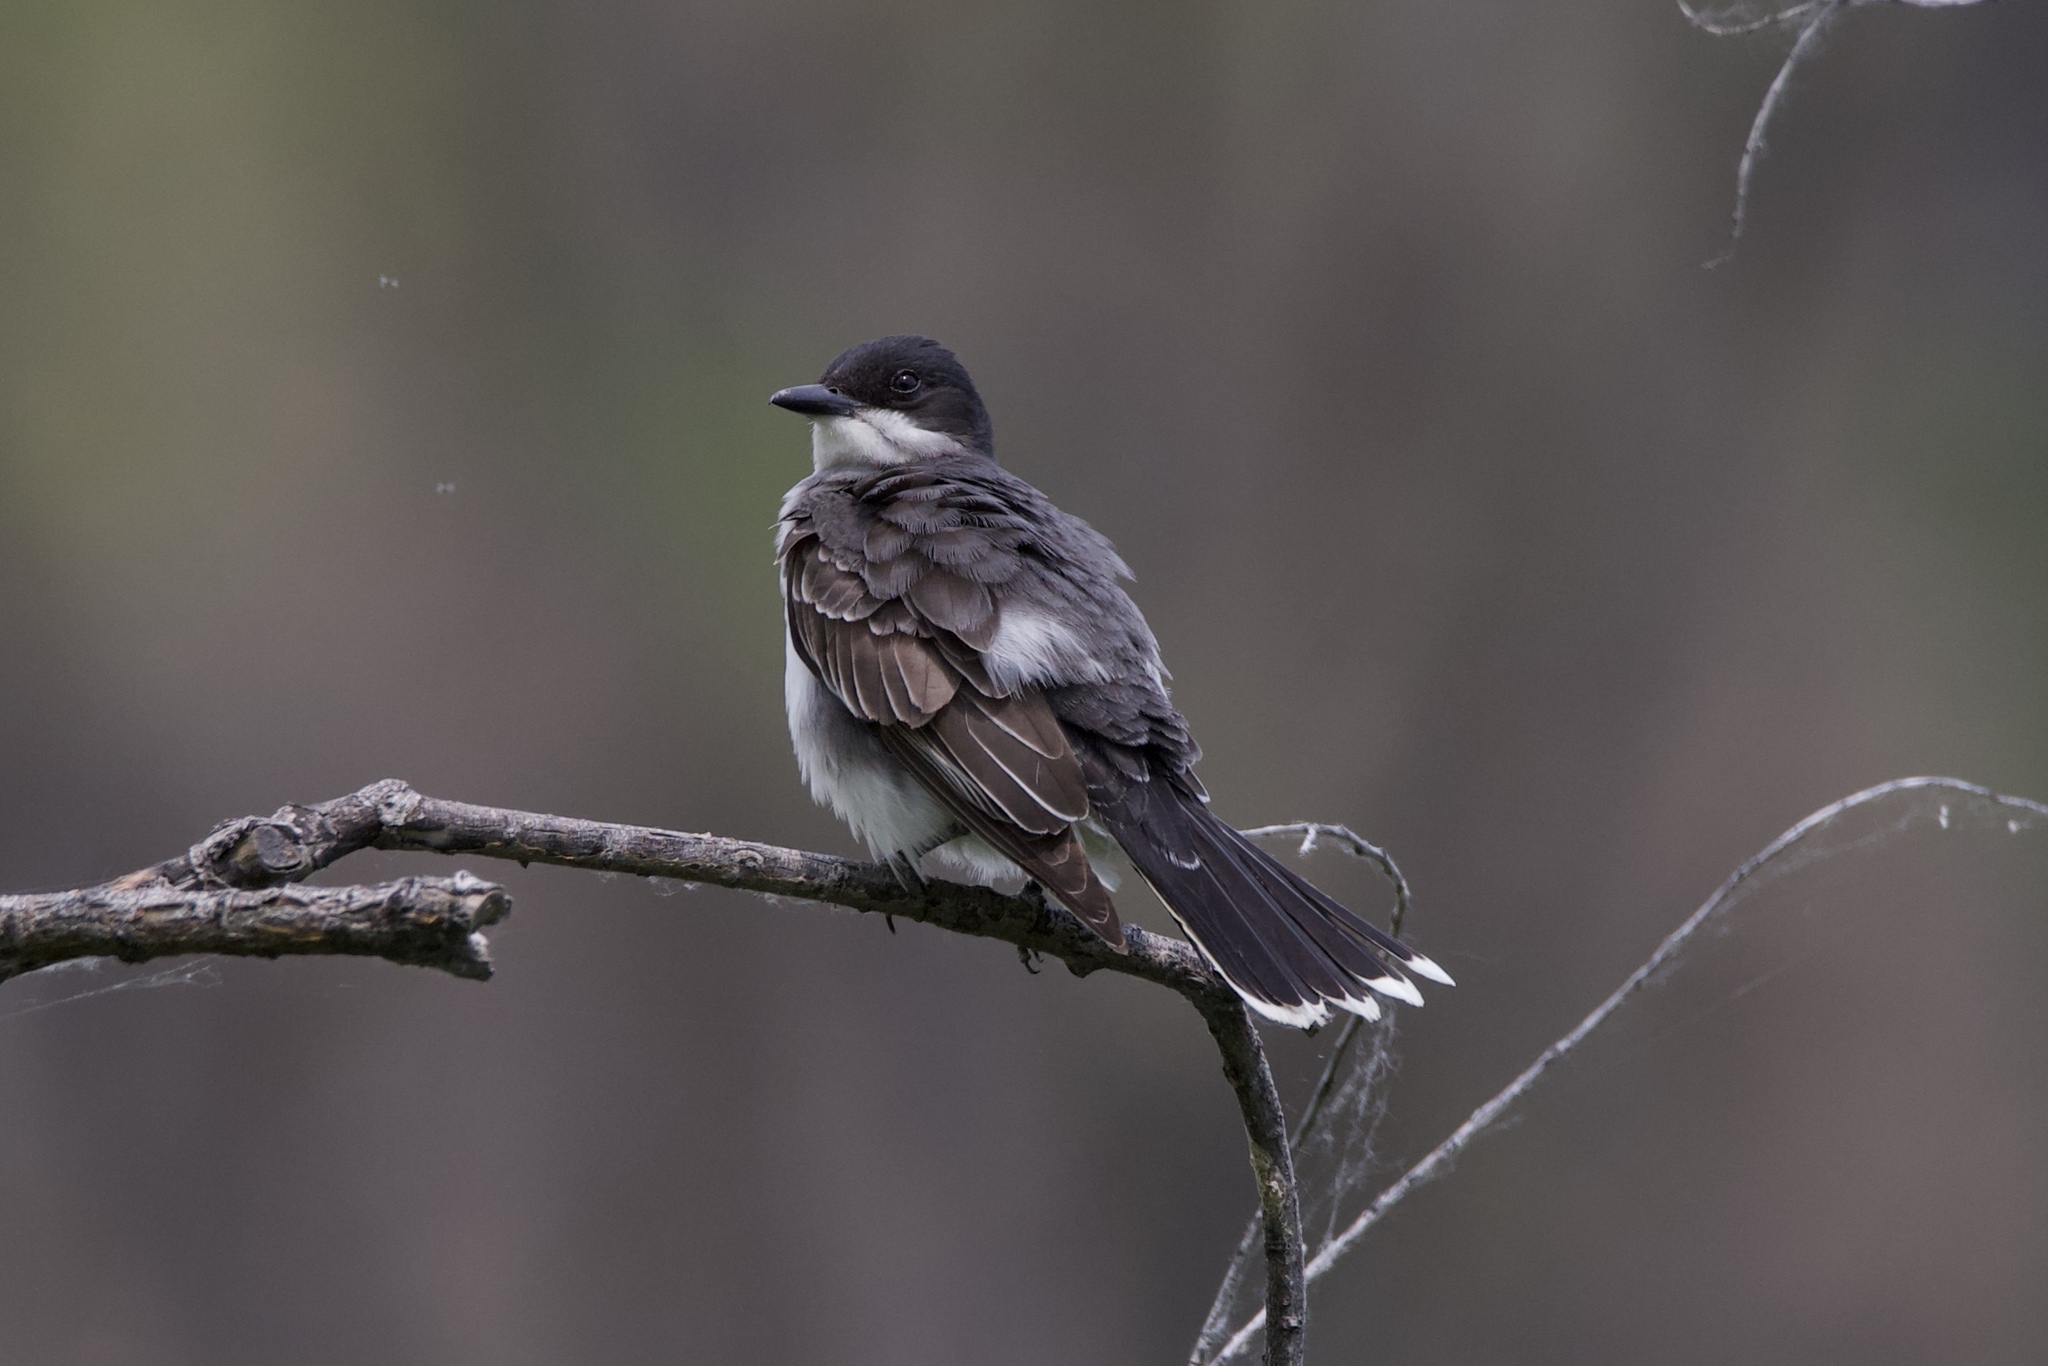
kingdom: Animalia
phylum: Chordata
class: Aves
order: Passeriformes
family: Tyrannidae
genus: Tyrannus
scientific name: Tyrannus tyrannus
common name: Eastern kingbird
